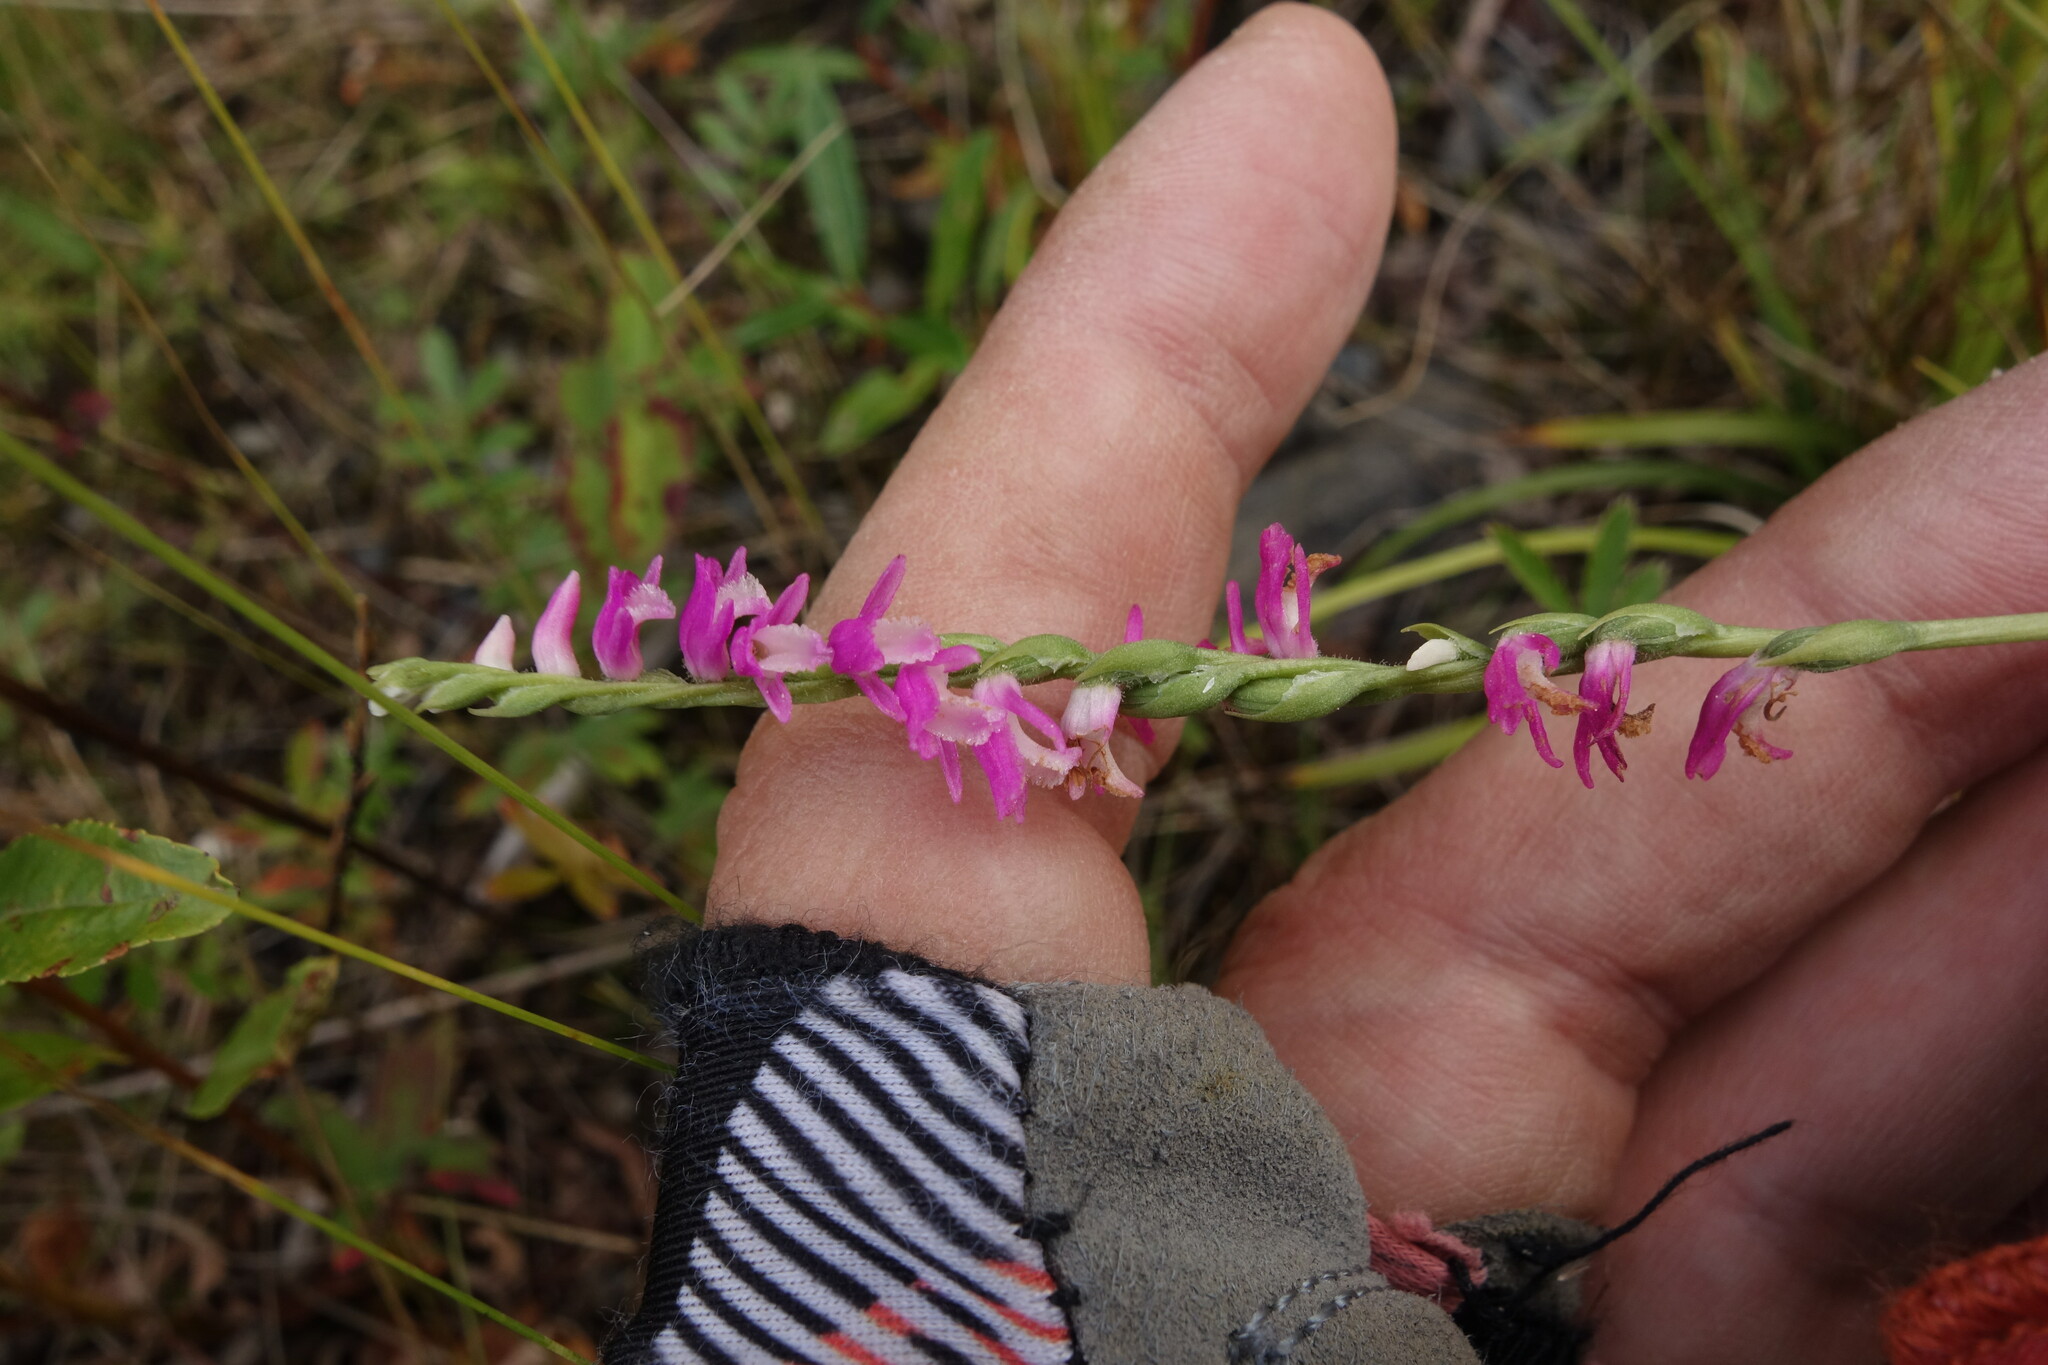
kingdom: Plantae
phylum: Tracheophyta
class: Liliopsida
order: Asparagales
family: Orchidaceae
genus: Spiranthes
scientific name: Spiranthes australis
